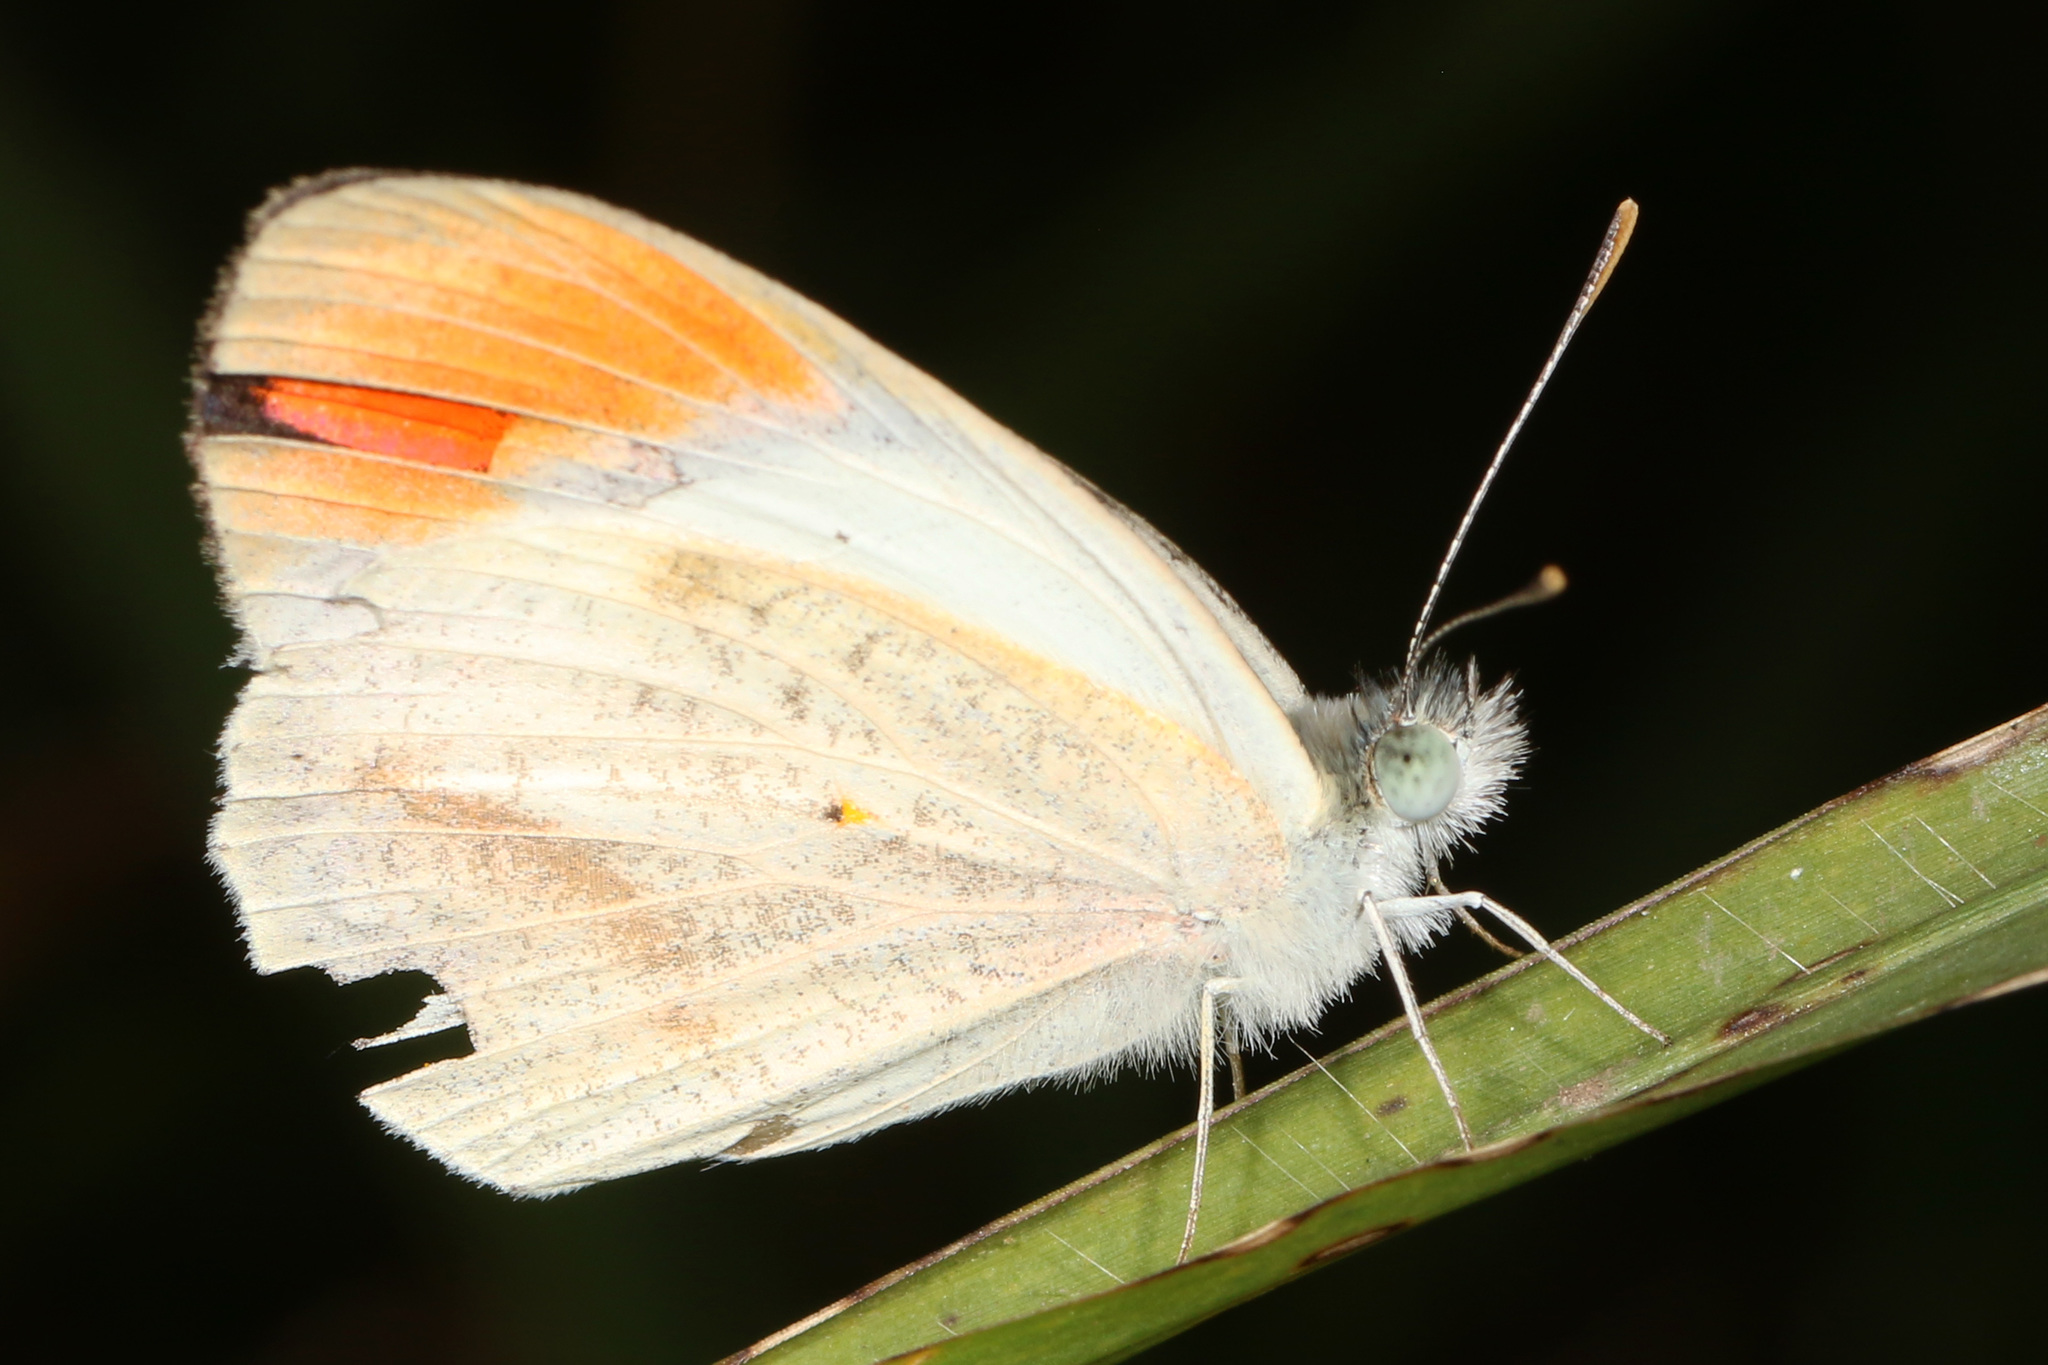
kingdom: Animalia
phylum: Arthropoda
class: Insecta
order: Lepidoptera
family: Pieridae
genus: Colotis
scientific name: Colotis euippe
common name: Round-winged orange tip
